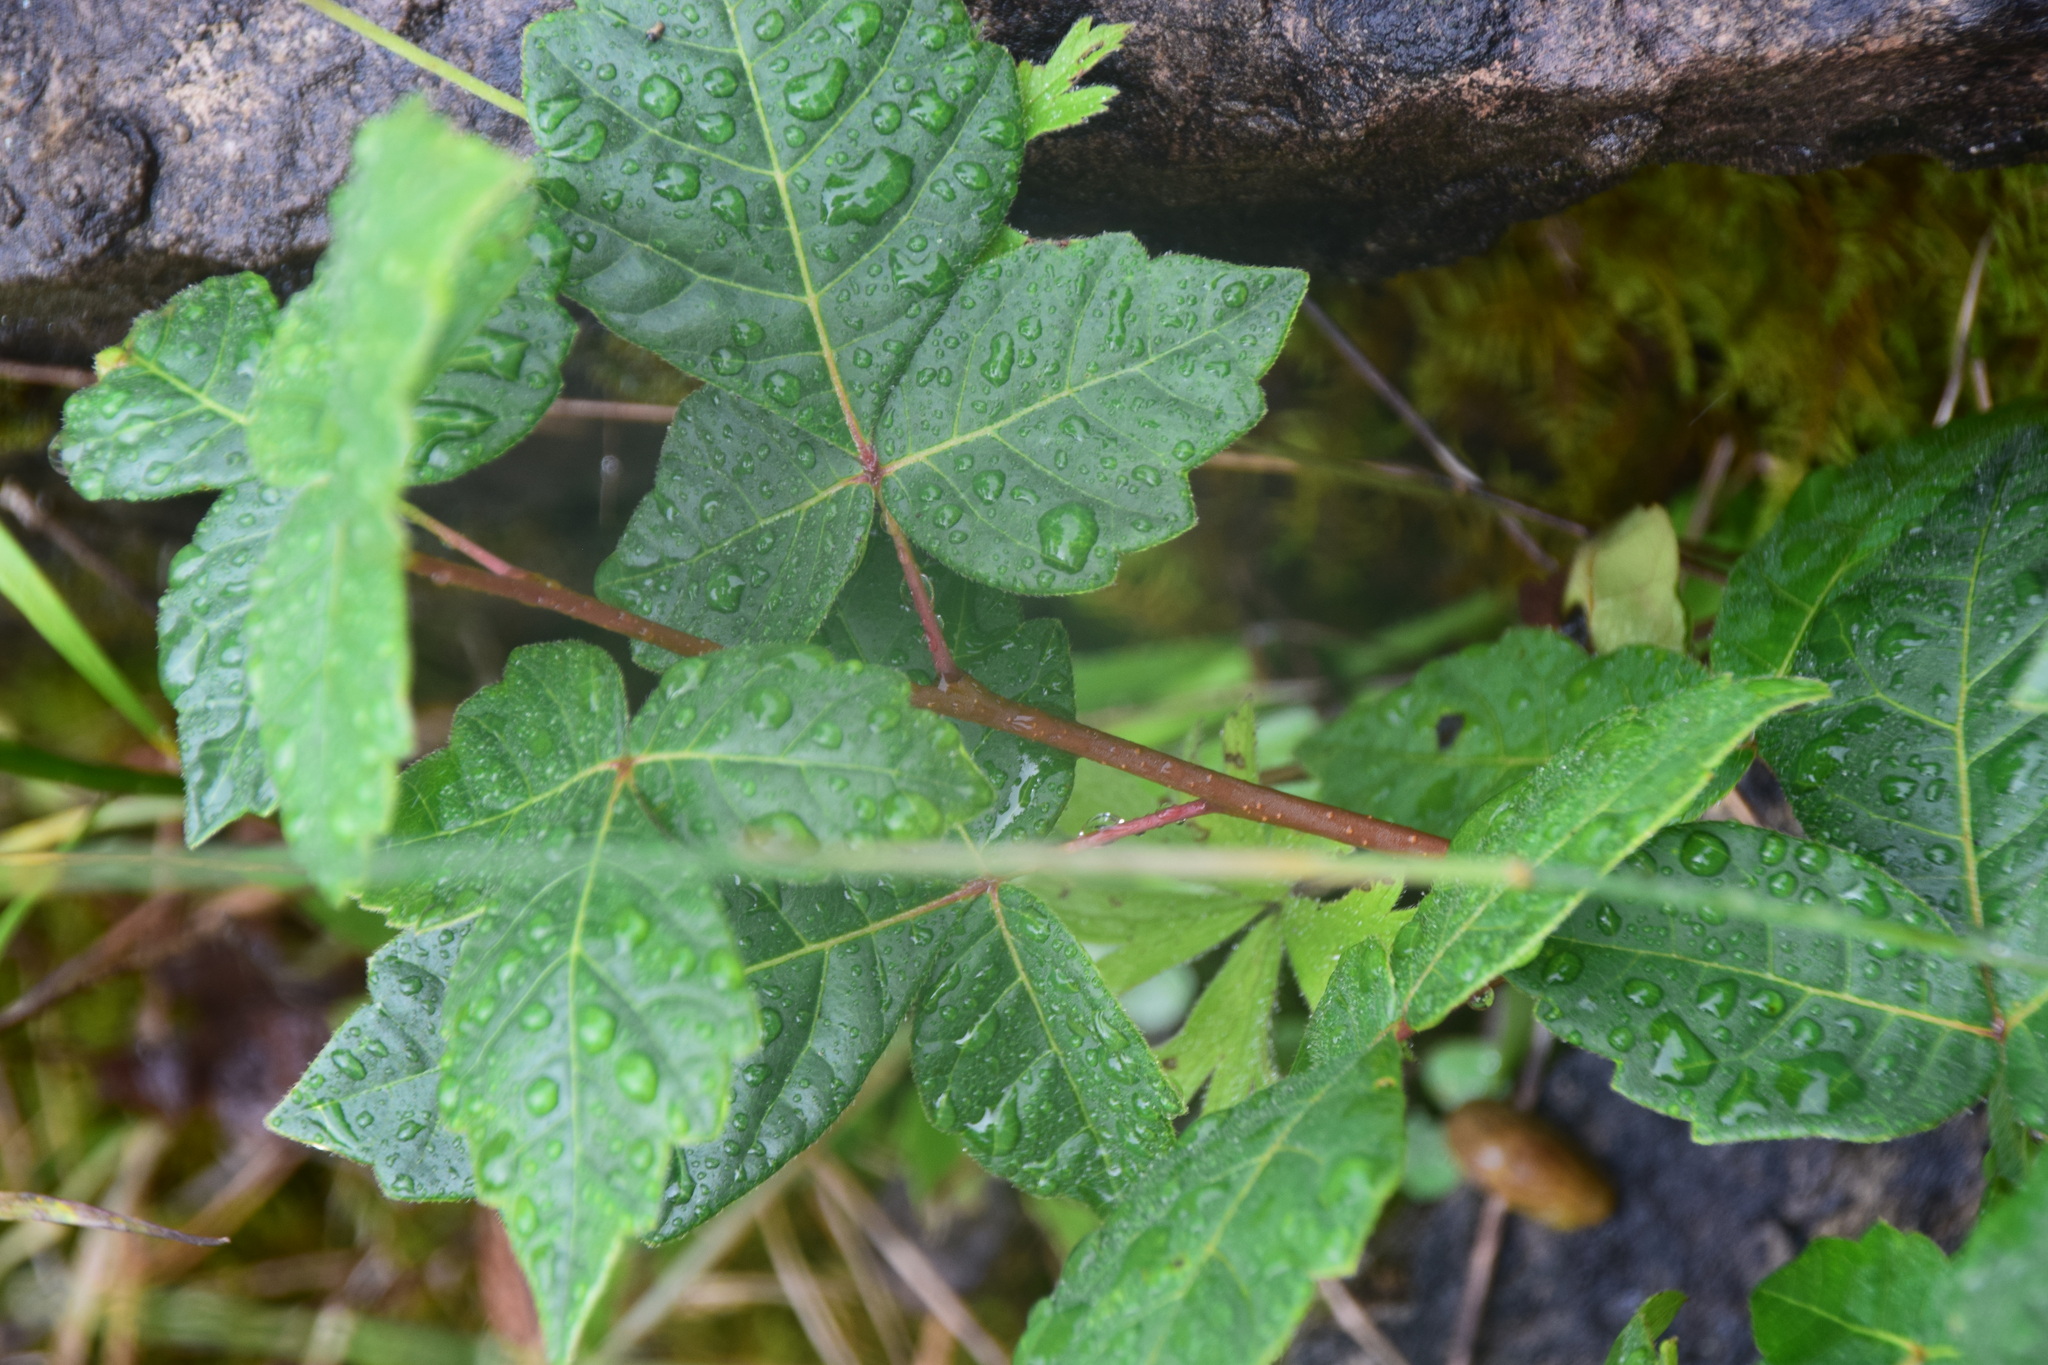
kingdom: Plantae
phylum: Tracheophyta
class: Magnoliopsida
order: Sapindales
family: Anacardiaceae
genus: Rhus
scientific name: Rhus aromatica
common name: Aromatic sumac
